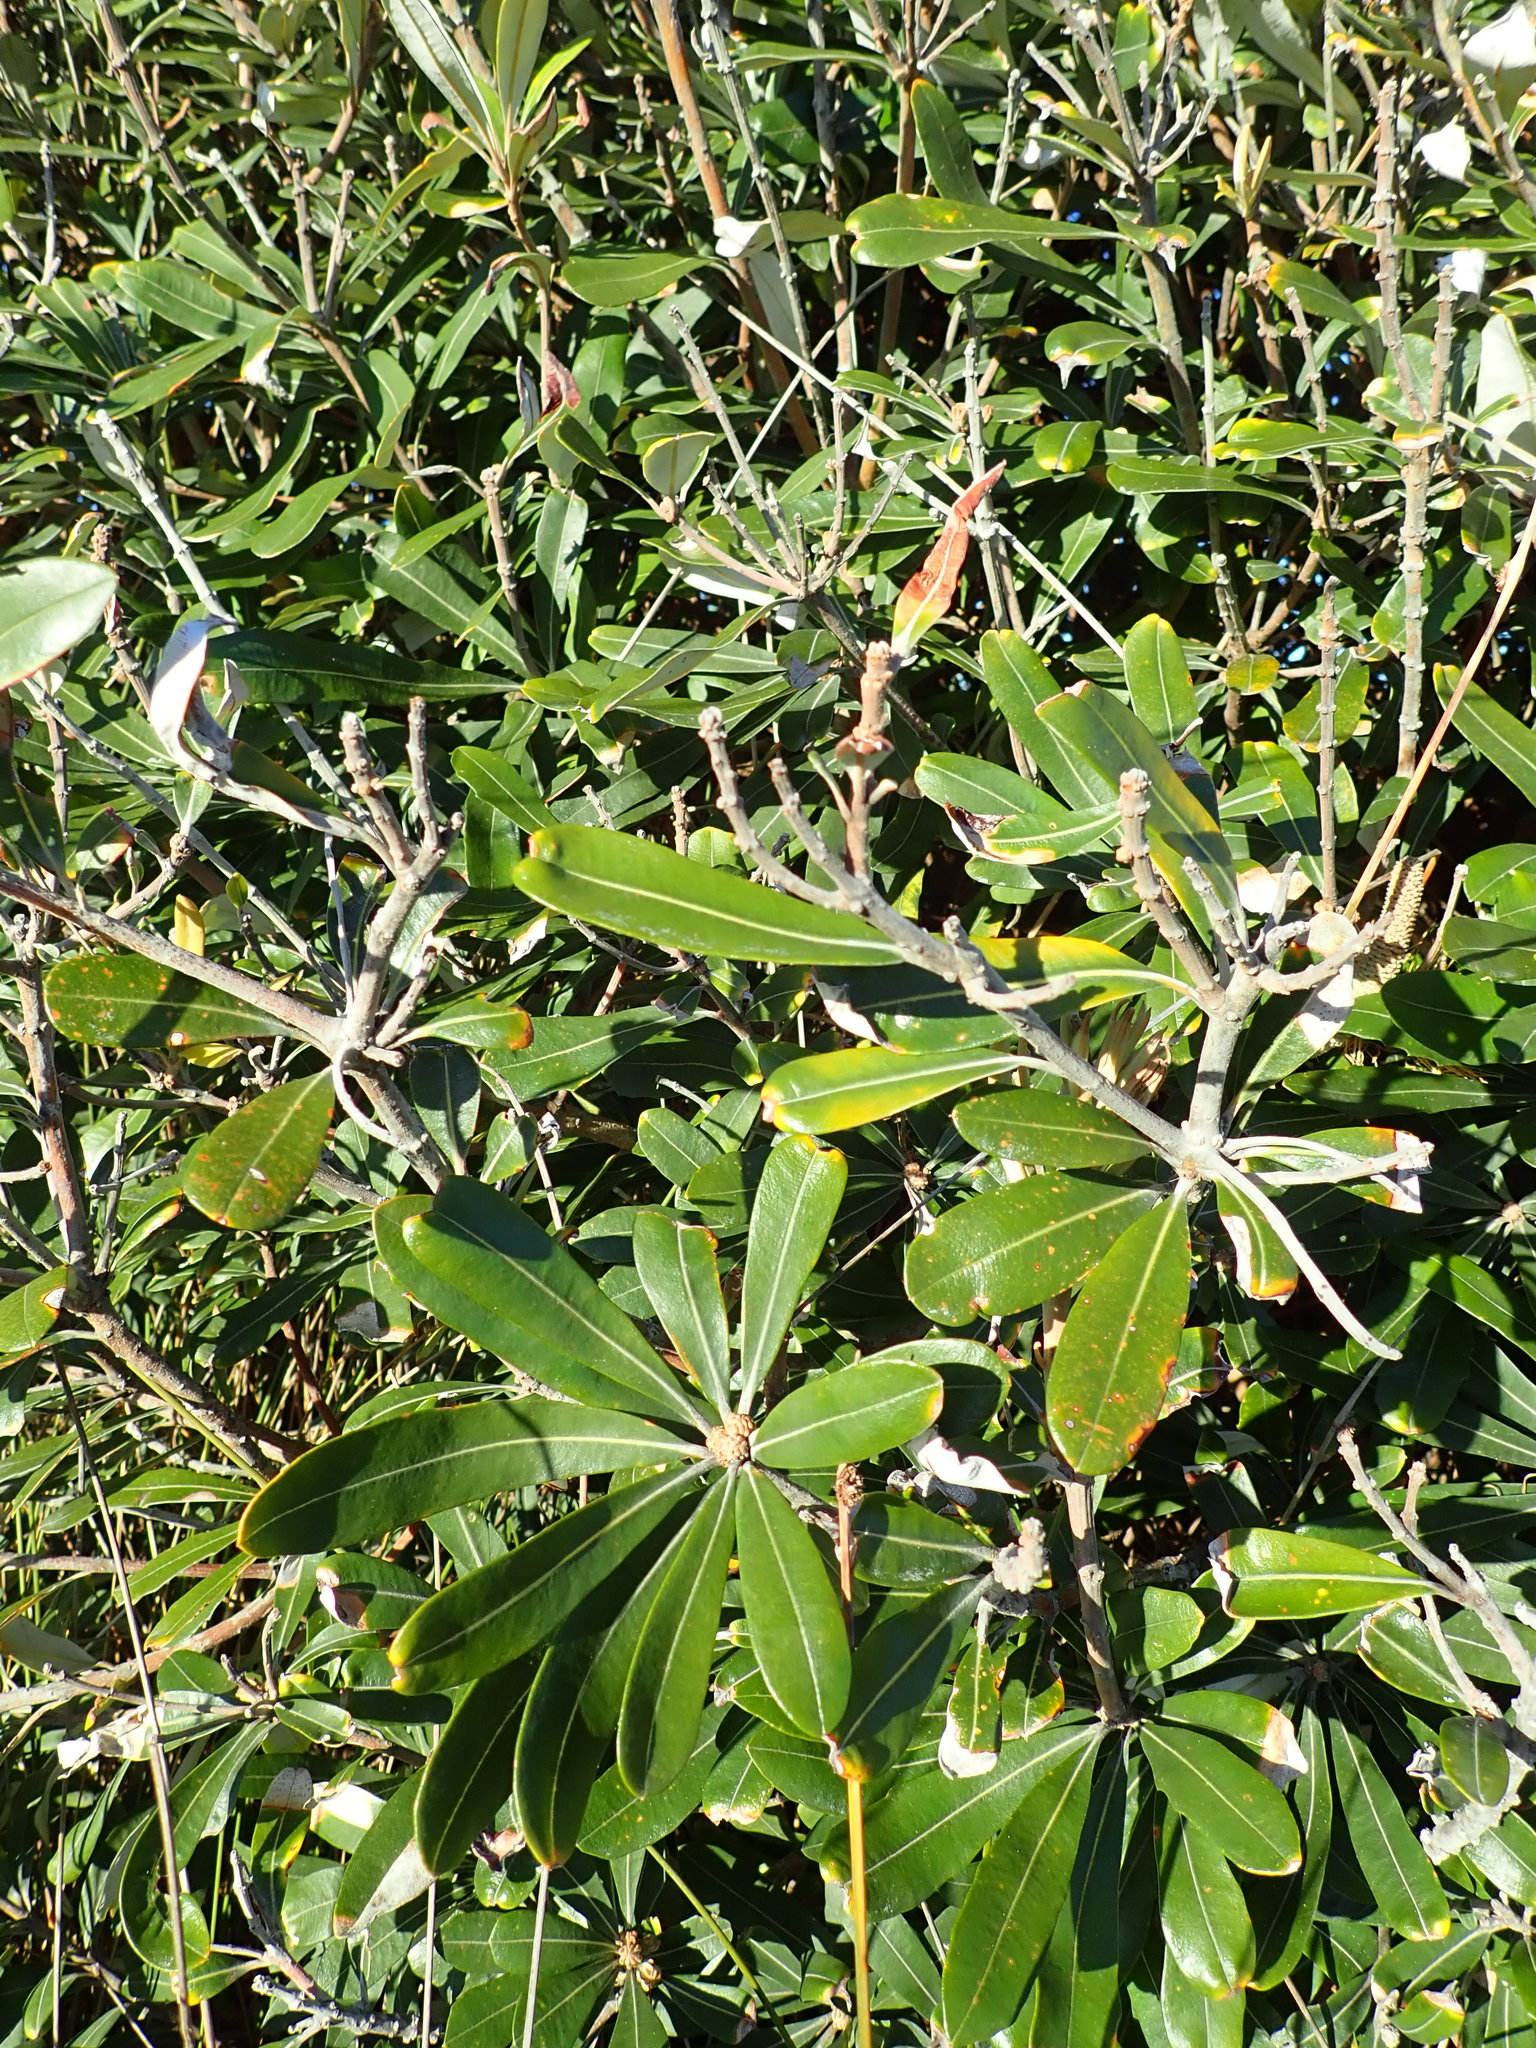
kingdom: Plantae
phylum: Tracheophyta
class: Magnoliopsida
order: Proteales
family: Proteaceae
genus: Banksia
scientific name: Banksia integrifolia
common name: White-honeysuckle
